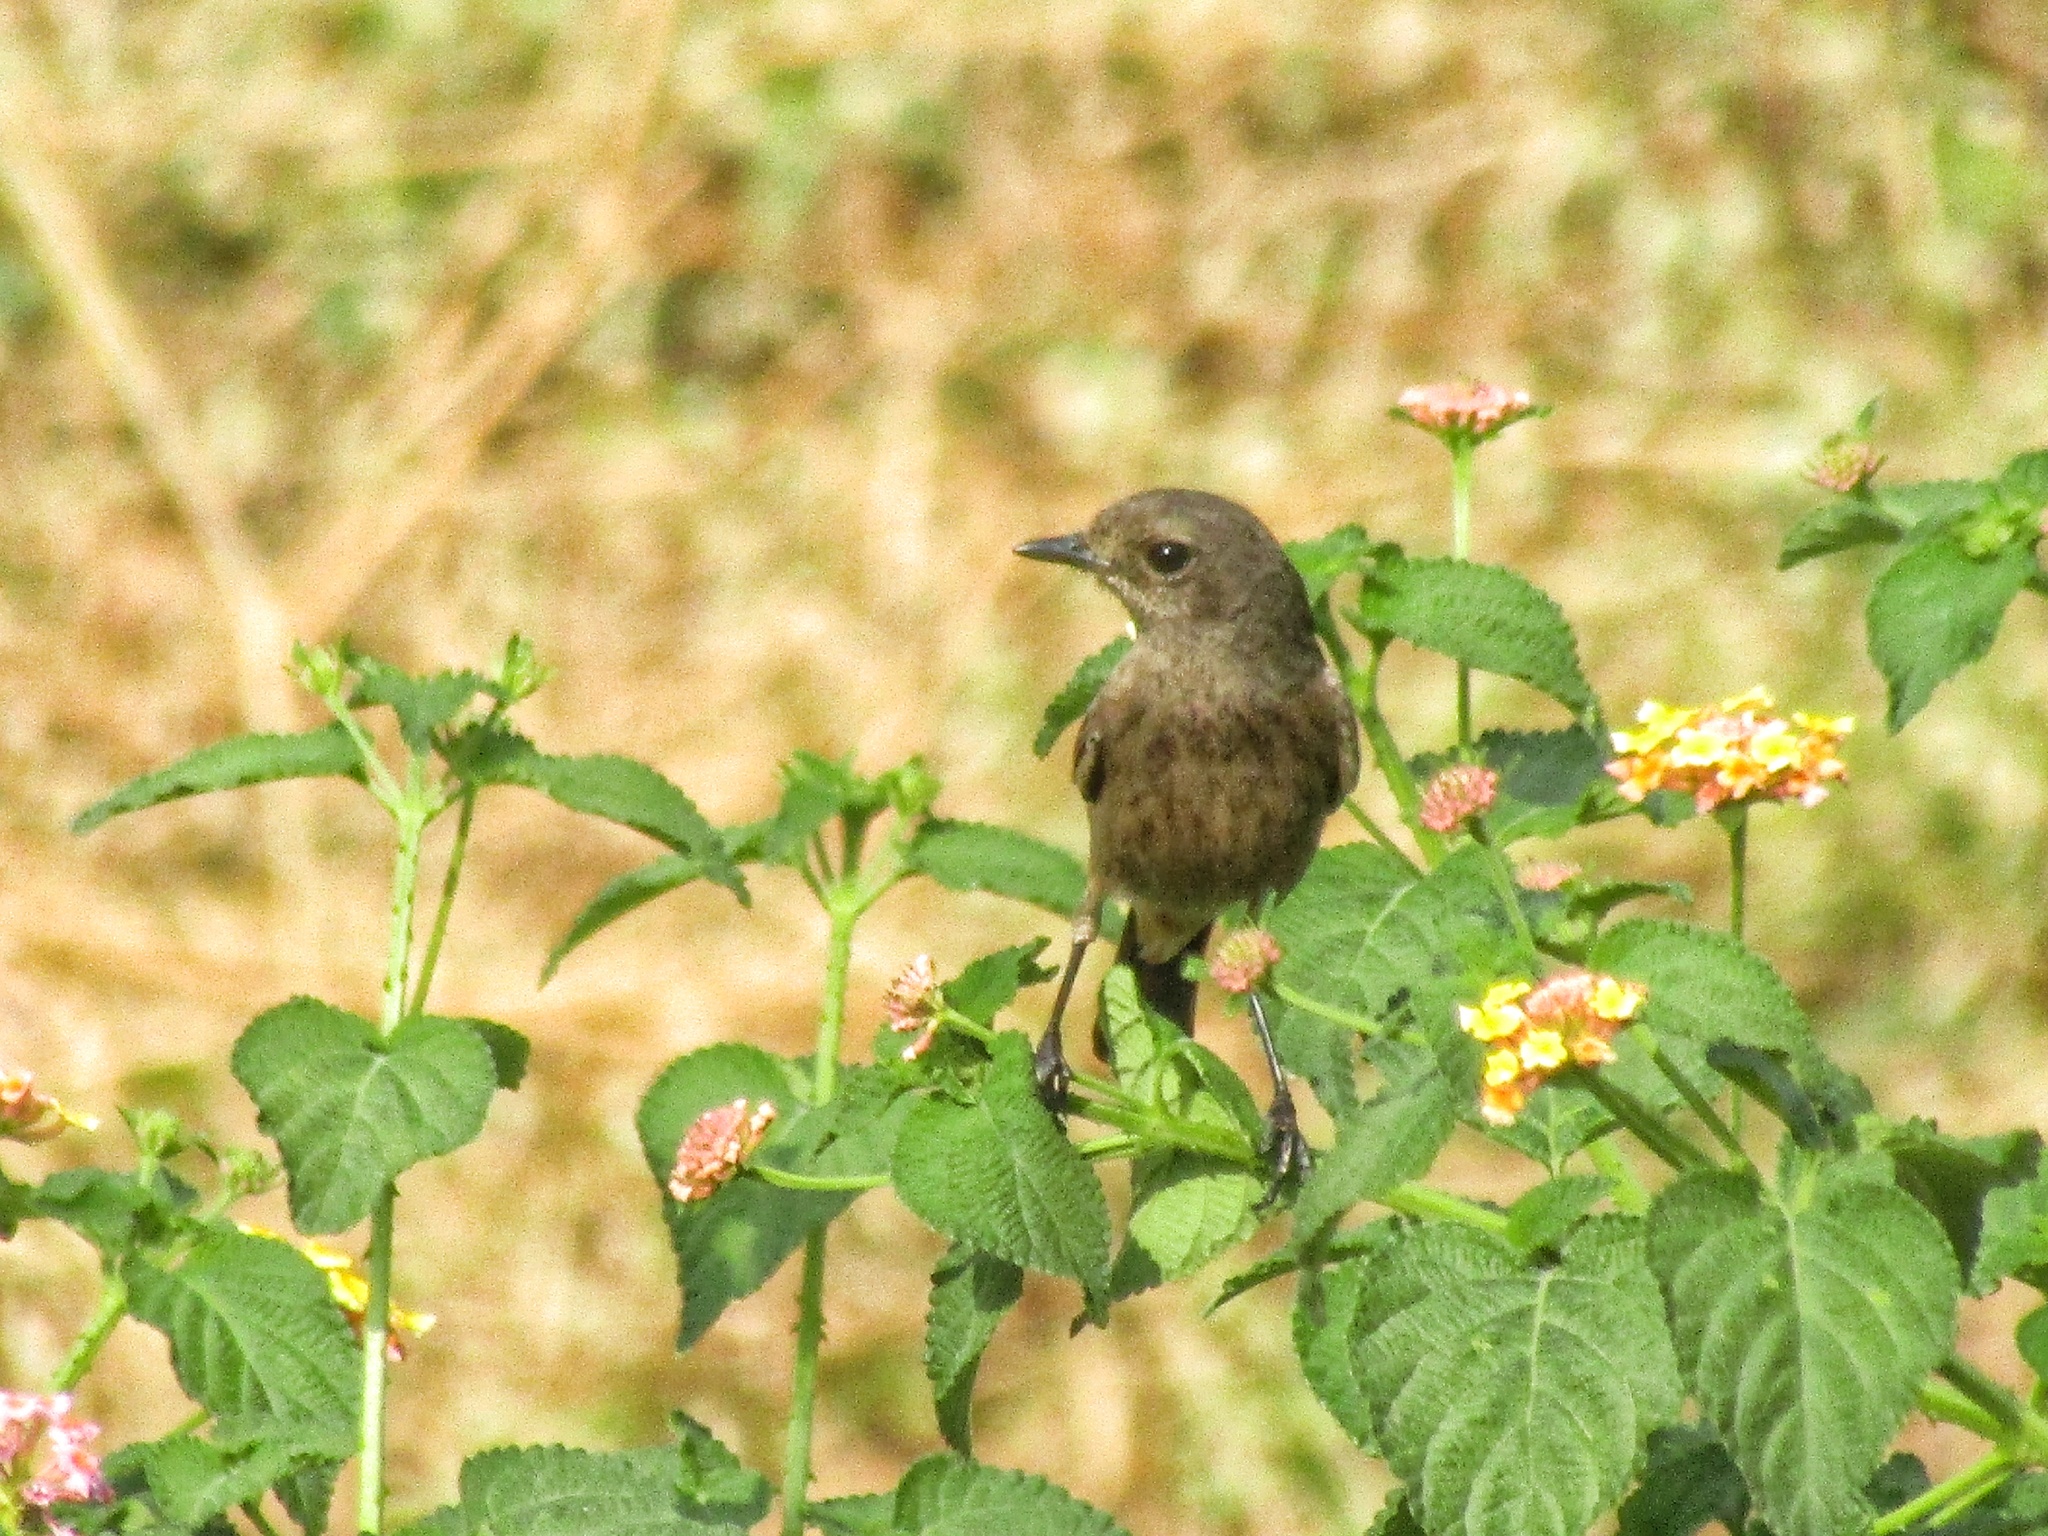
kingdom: Animalia
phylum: Chordata
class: Aves
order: Passeriformes
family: Muscicapidae
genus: Saxicola
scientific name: Saxicola caprata
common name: Pied bush chat
